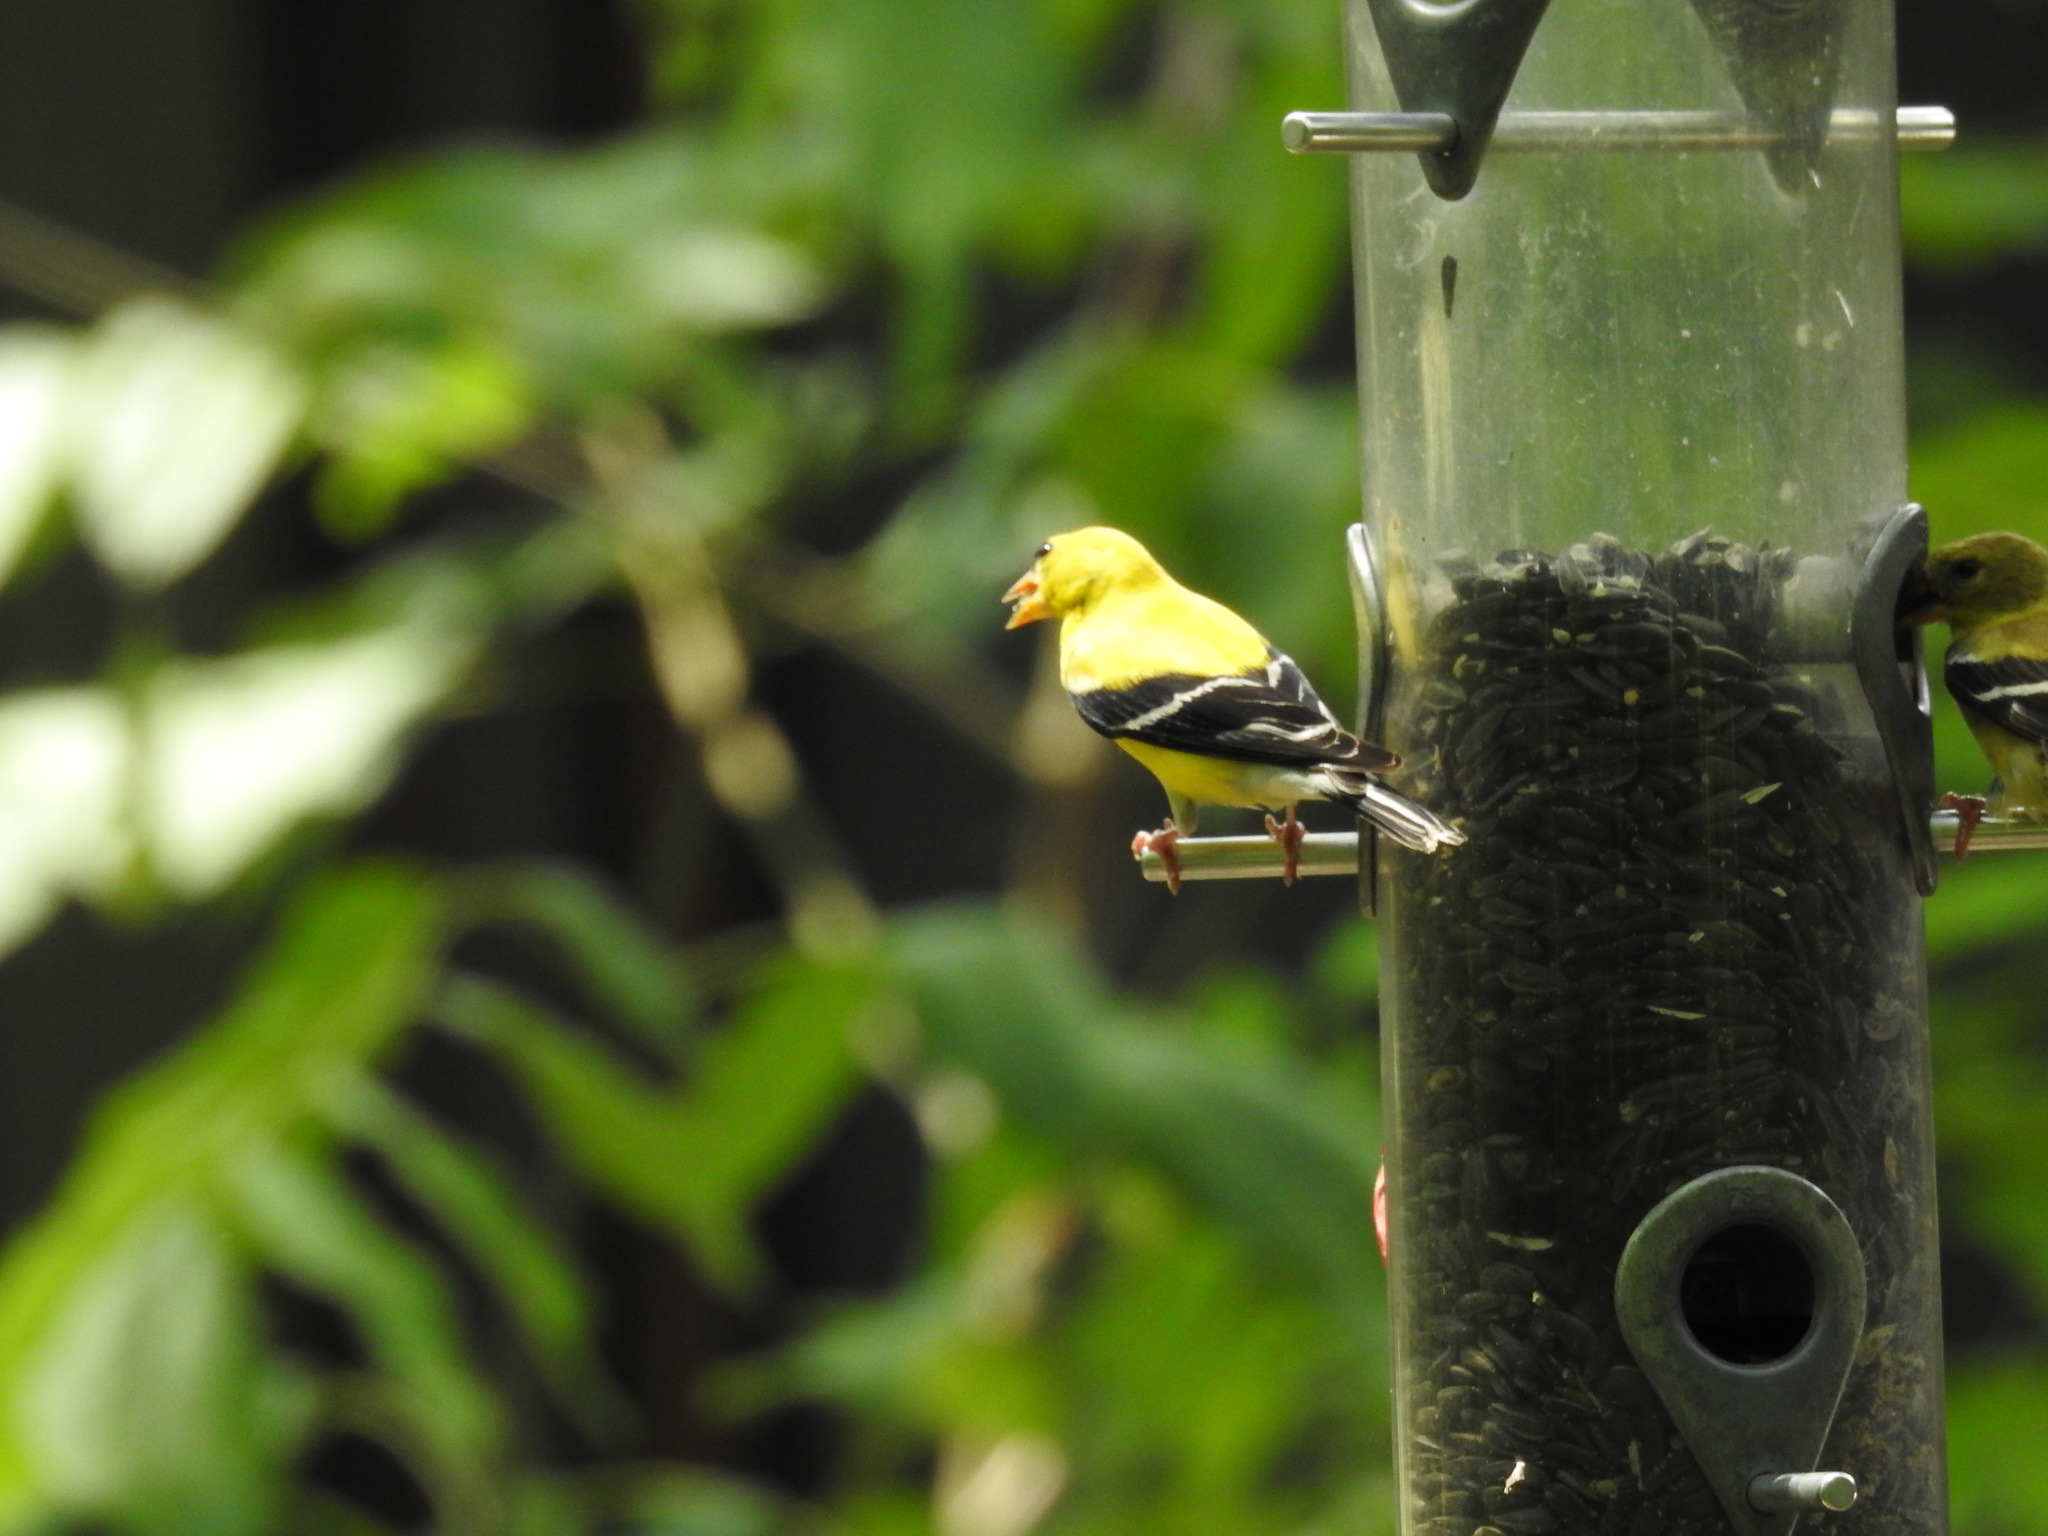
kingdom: Animalia
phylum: Chordata
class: Aves
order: Passeriformes
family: Fringillidae
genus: Spinus
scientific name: Spinus tristis
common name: American goldfinch
